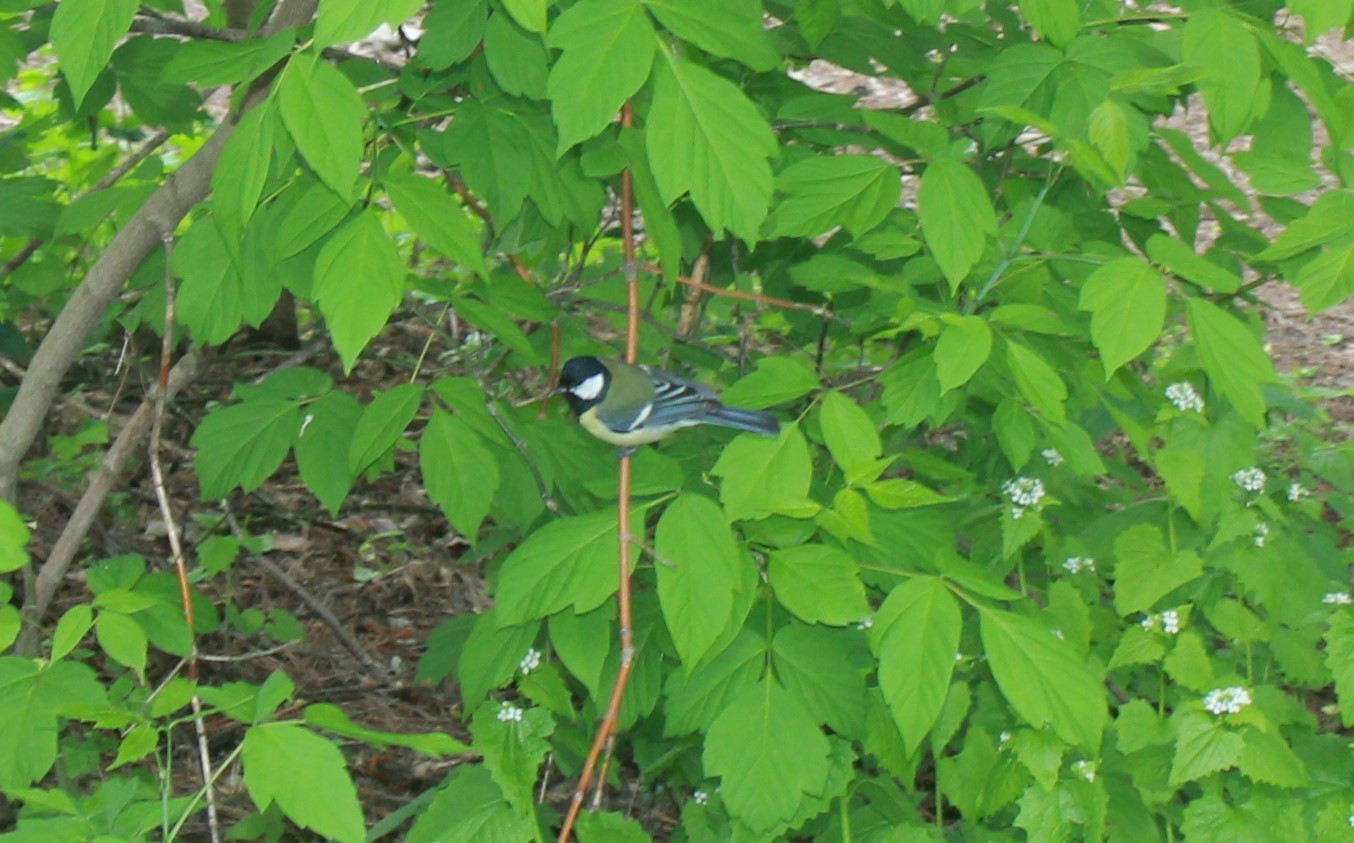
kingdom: Animalia
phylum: Chordata
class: Aves
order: Passeriformes
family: Paridae
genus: Parus
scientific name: Parus major
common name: Great tit
